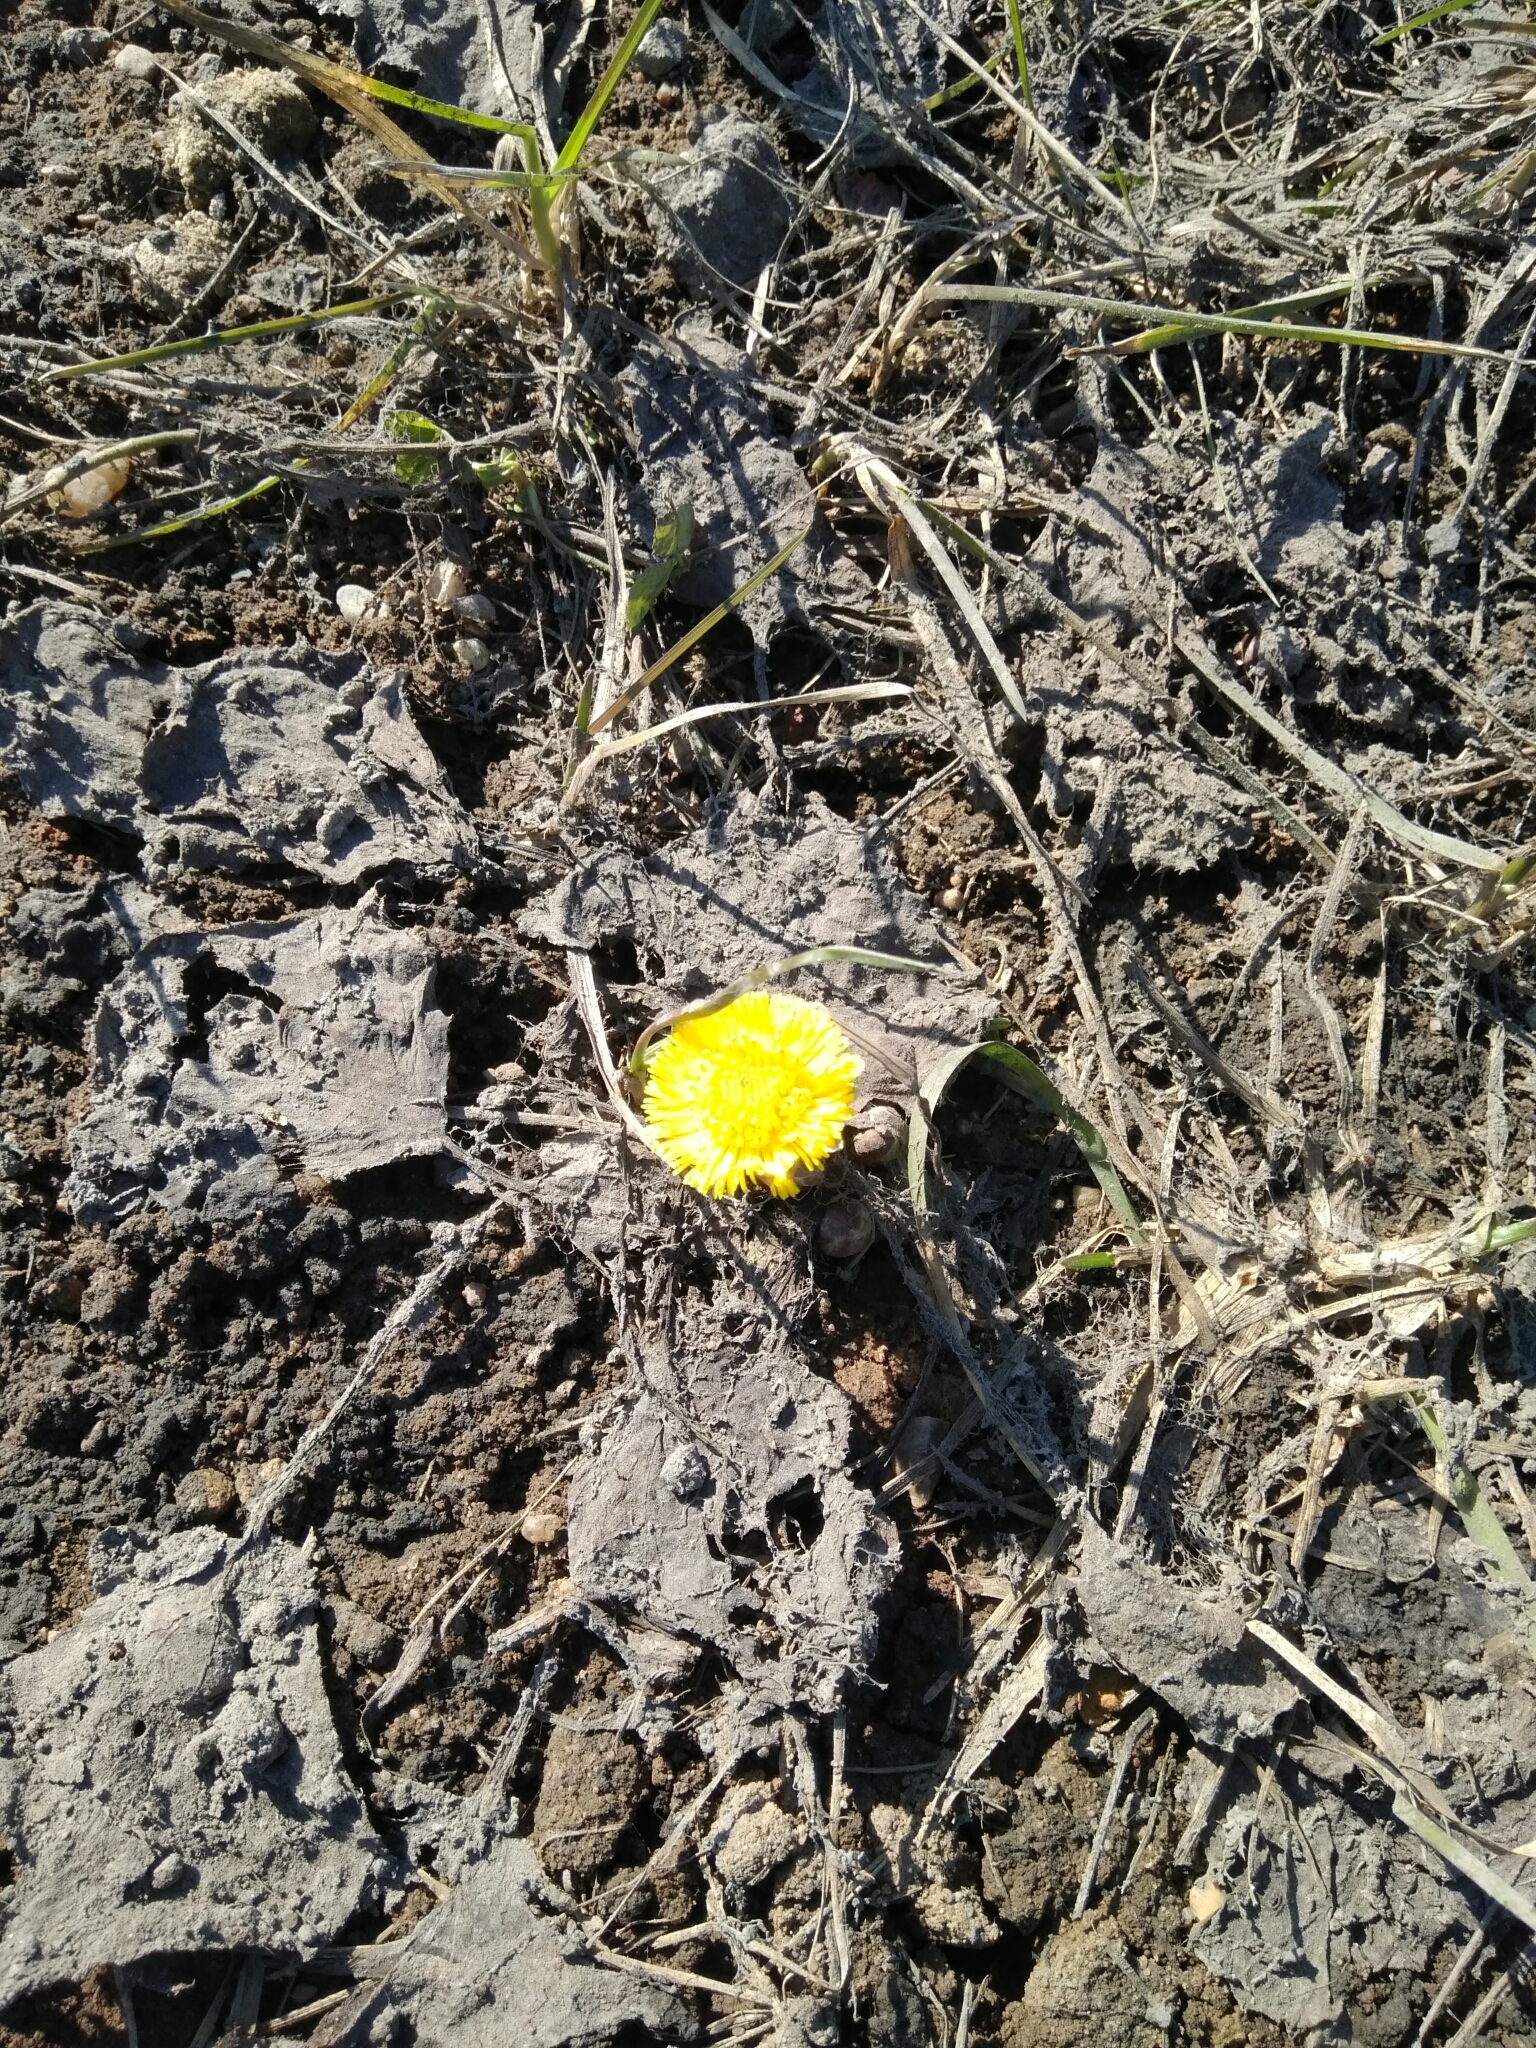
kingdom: Plantae
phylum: Tracheophyta
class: Magnoliopsida
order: Asterales
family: Asteraceae
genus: Tussilago
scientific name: Tussilago farfara
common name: Coltsfoot
